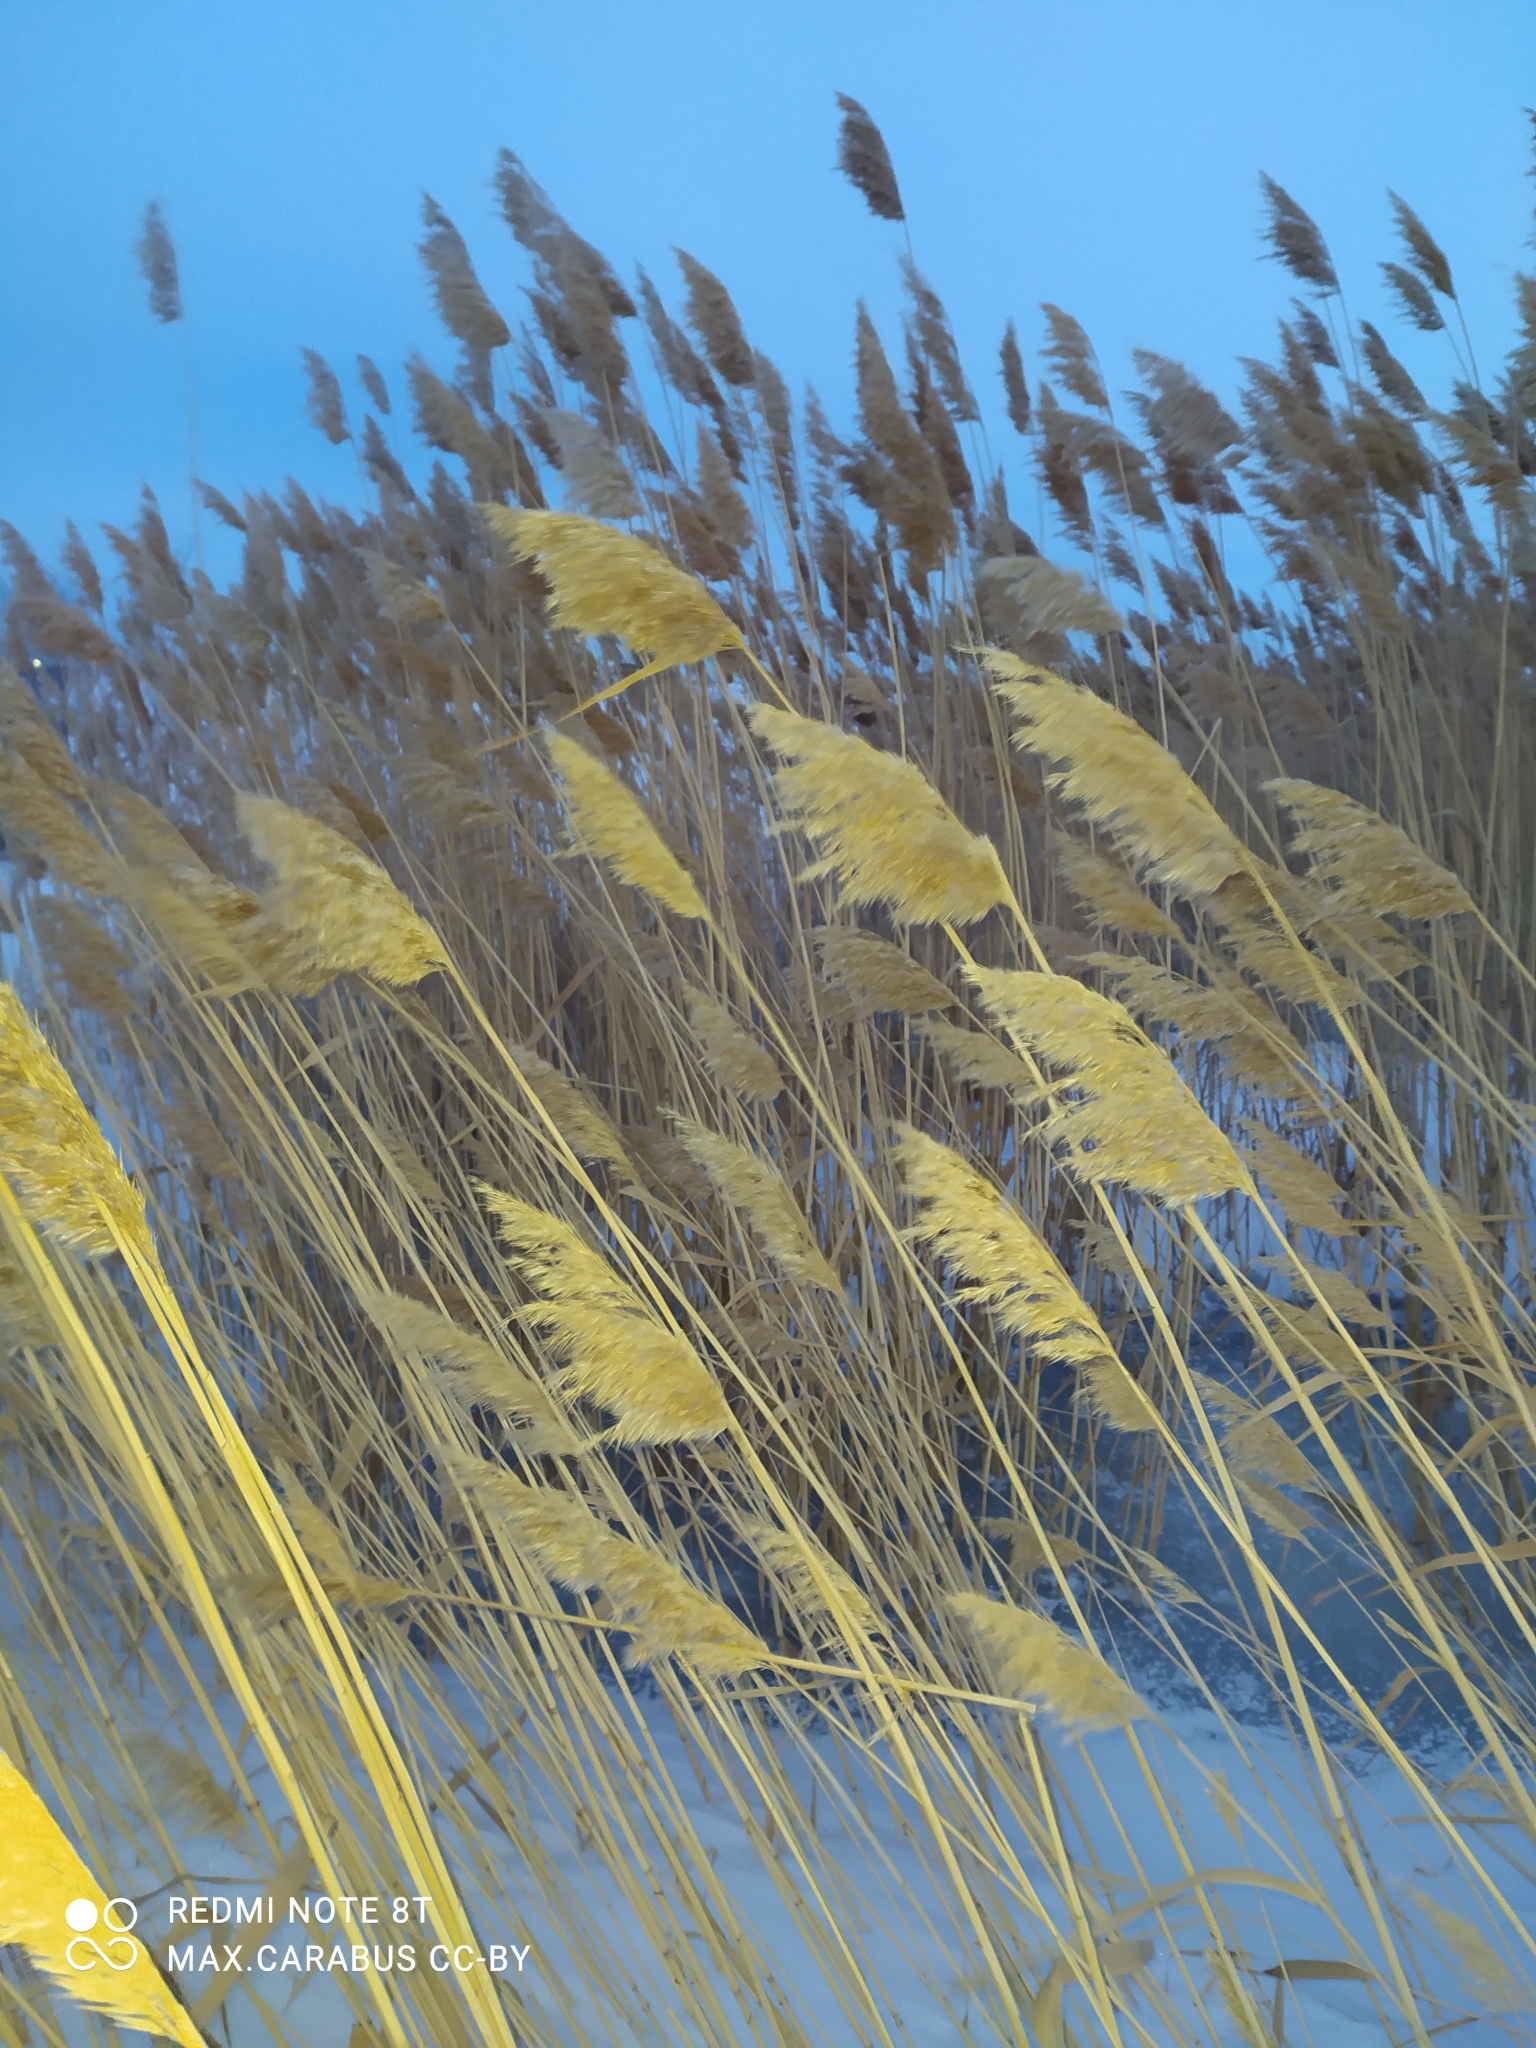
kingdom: Plantae
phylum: Tracheophyta
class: Liliopsida
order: Poales
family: Poaceae
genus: Phragmites
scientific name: Phragmites australis
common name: Common reed
